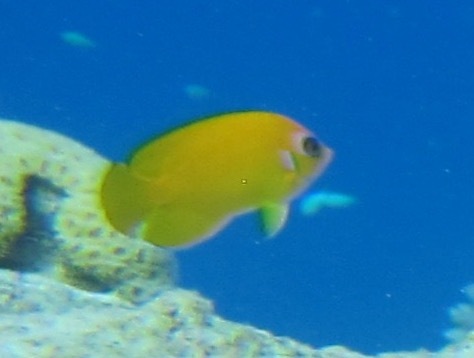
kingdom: Animalia
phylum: Chordata
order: Perciformes
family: Pomacanthidae
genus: Centropyge
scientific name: Centropyge flavissima
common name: Lemonpeel angelfish
